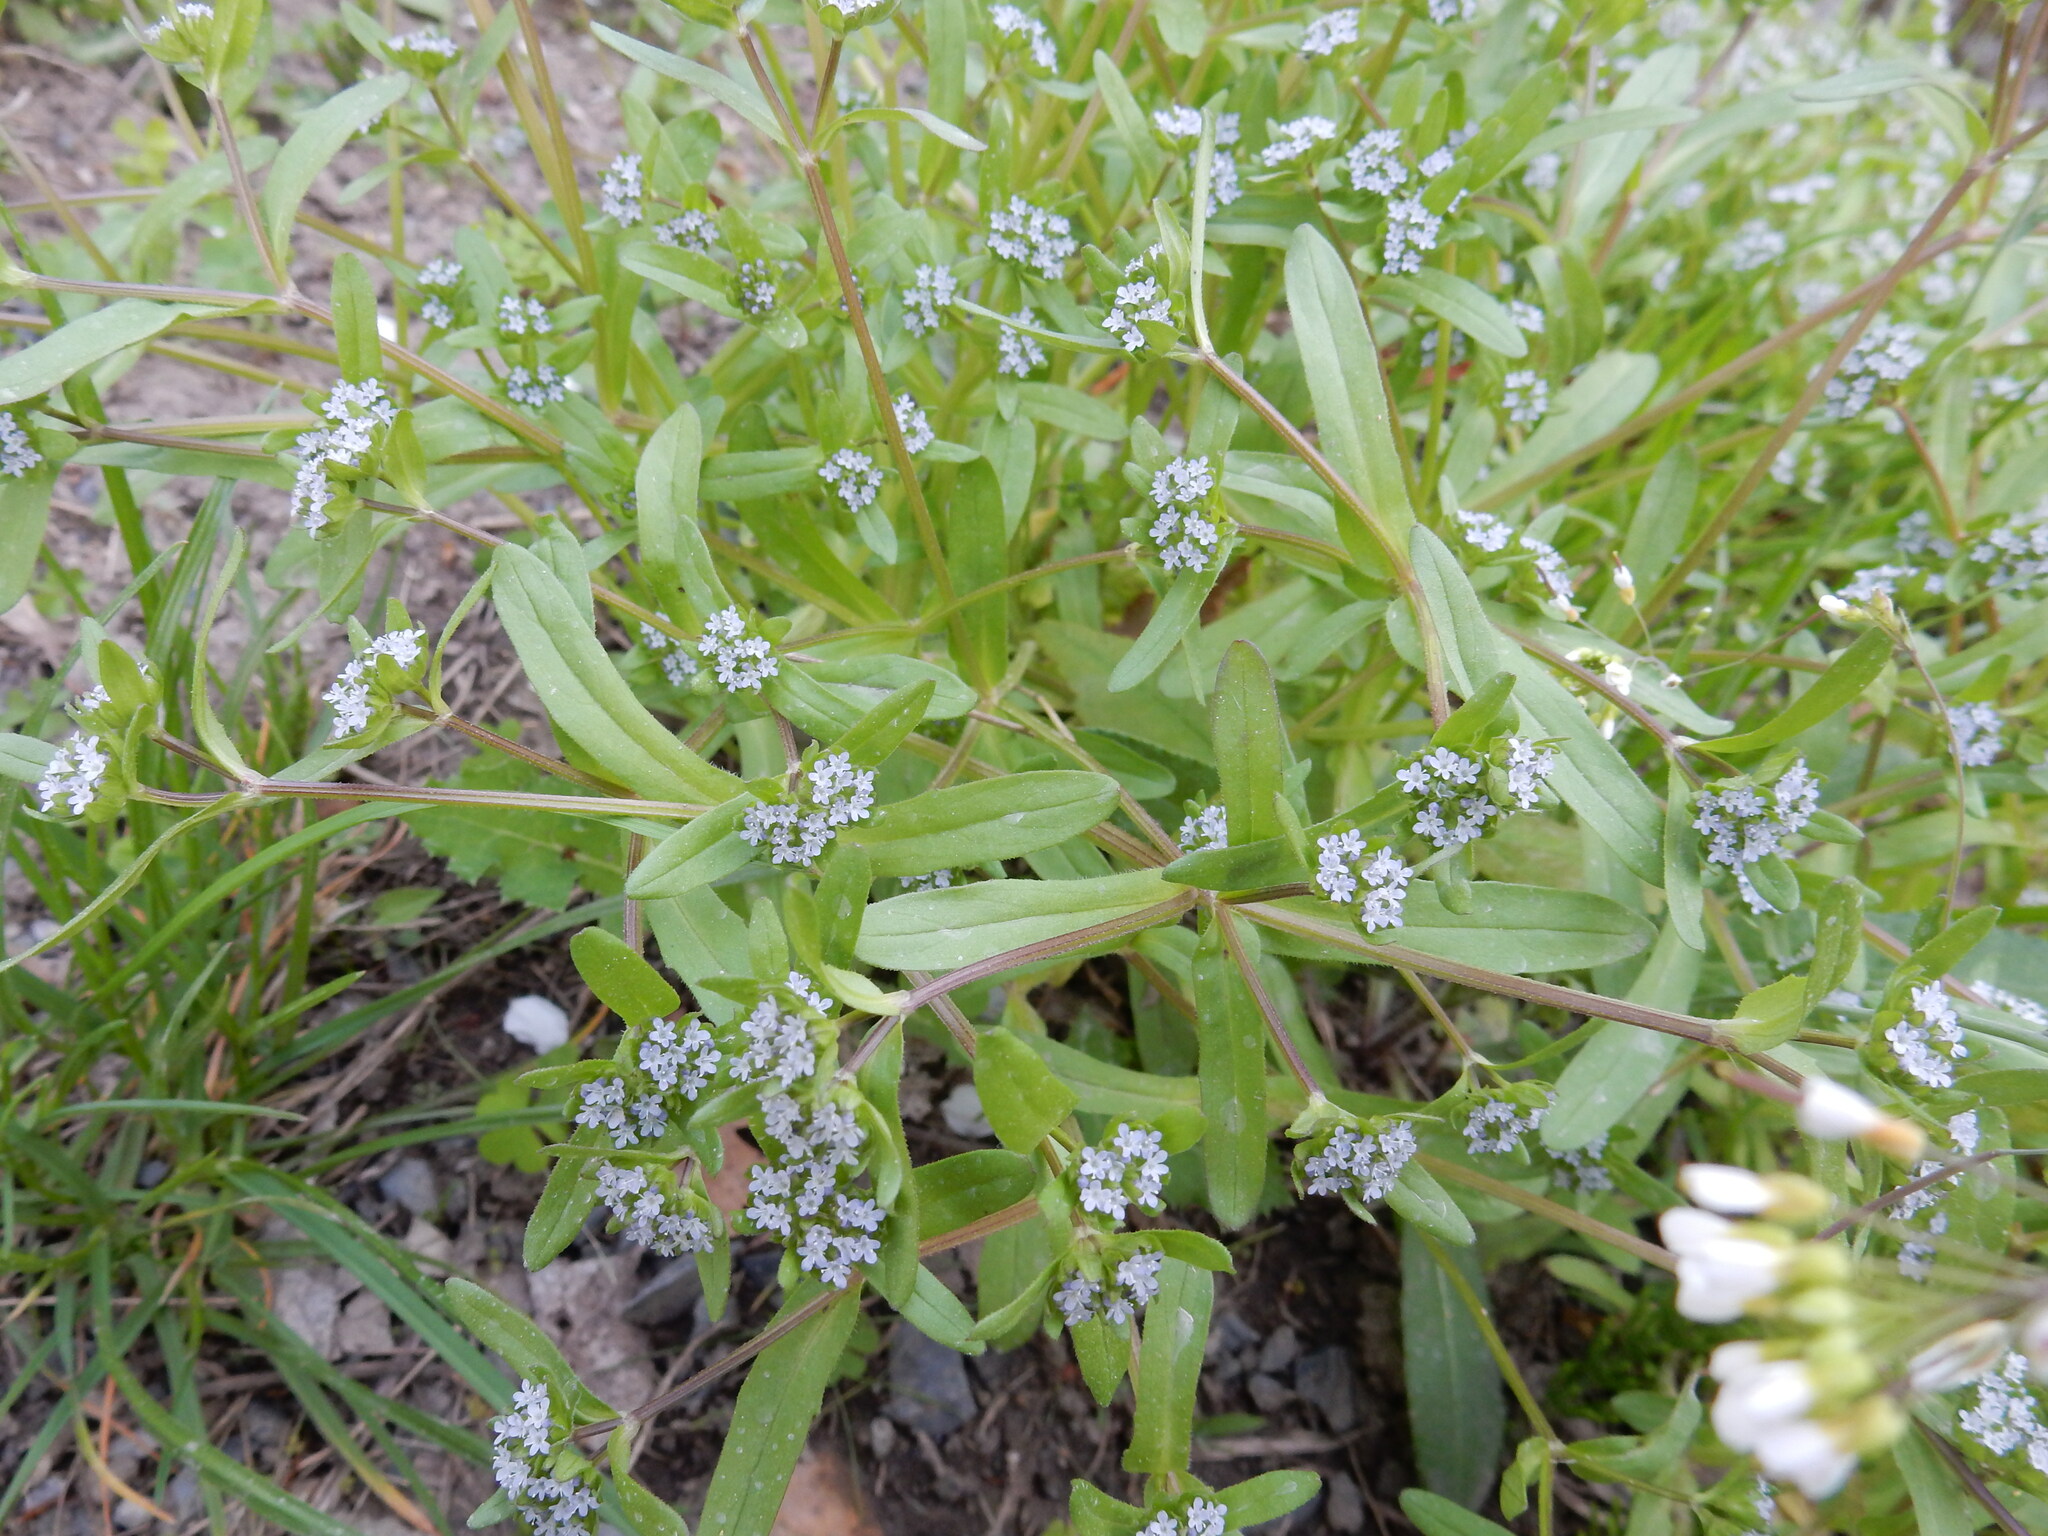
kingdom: Plantae
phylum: Tracheophyta
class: Magnoliopsida
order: Dipsacales
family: Caprifoliaceae
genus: Valerianella
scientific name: Valerianella locusta
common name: Common cornsalad
